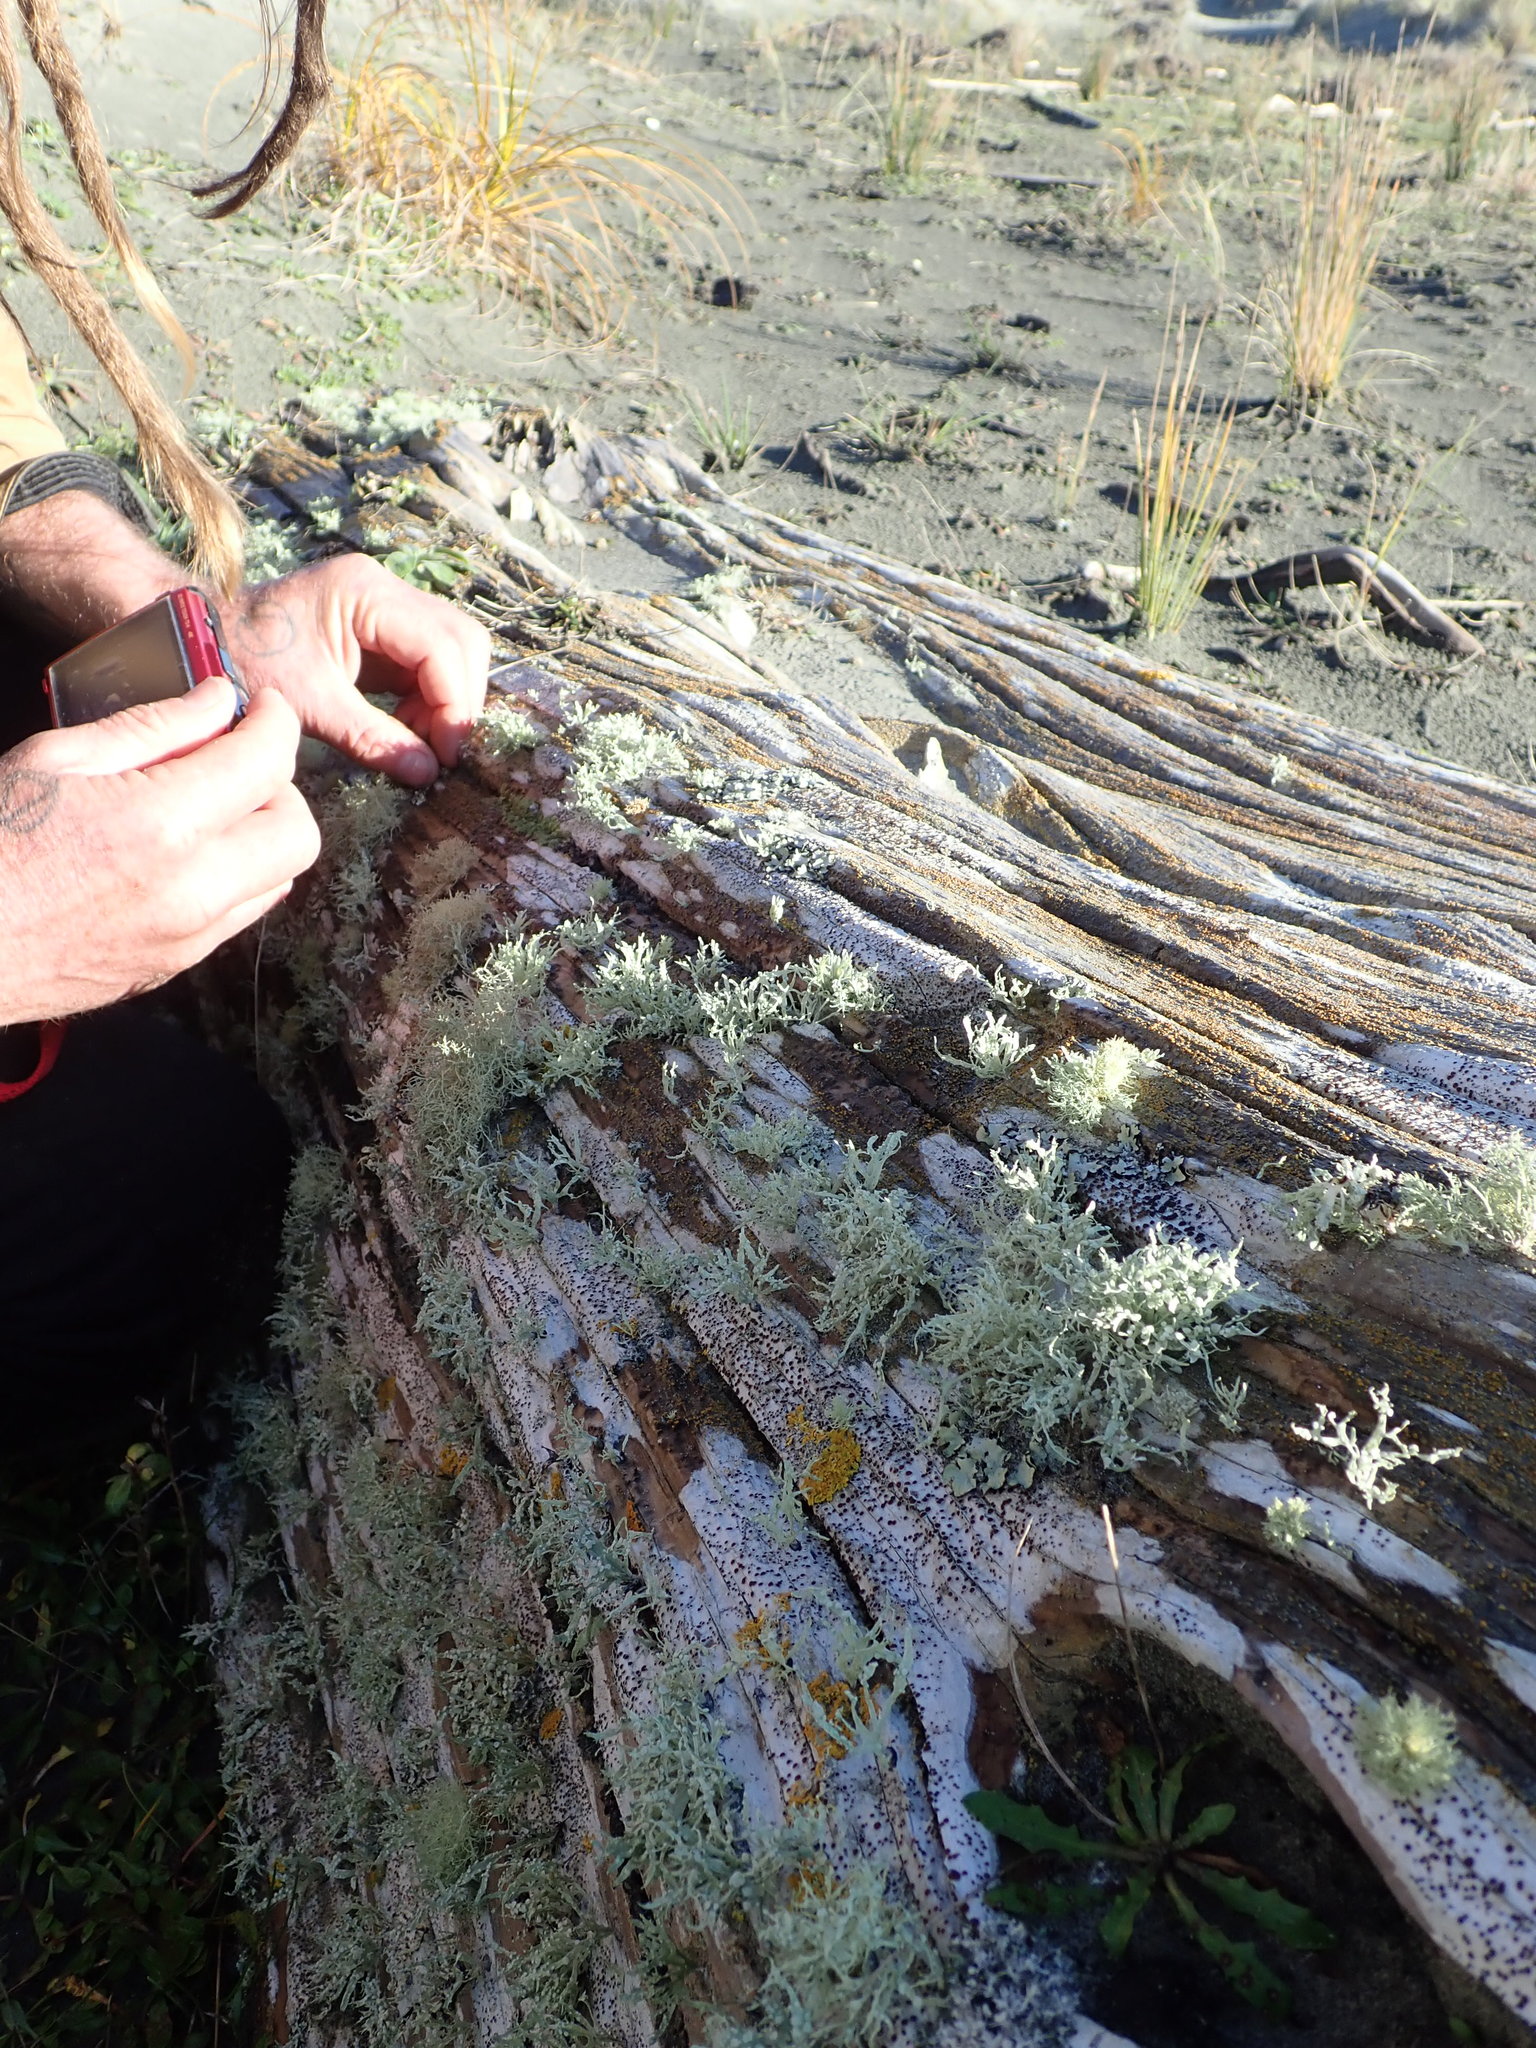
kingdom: Animalia
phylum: Arthropoda
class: Malacostraca
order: Isopoda
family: Tylidae
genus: Tylos
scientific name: Tylos neozelanicus
